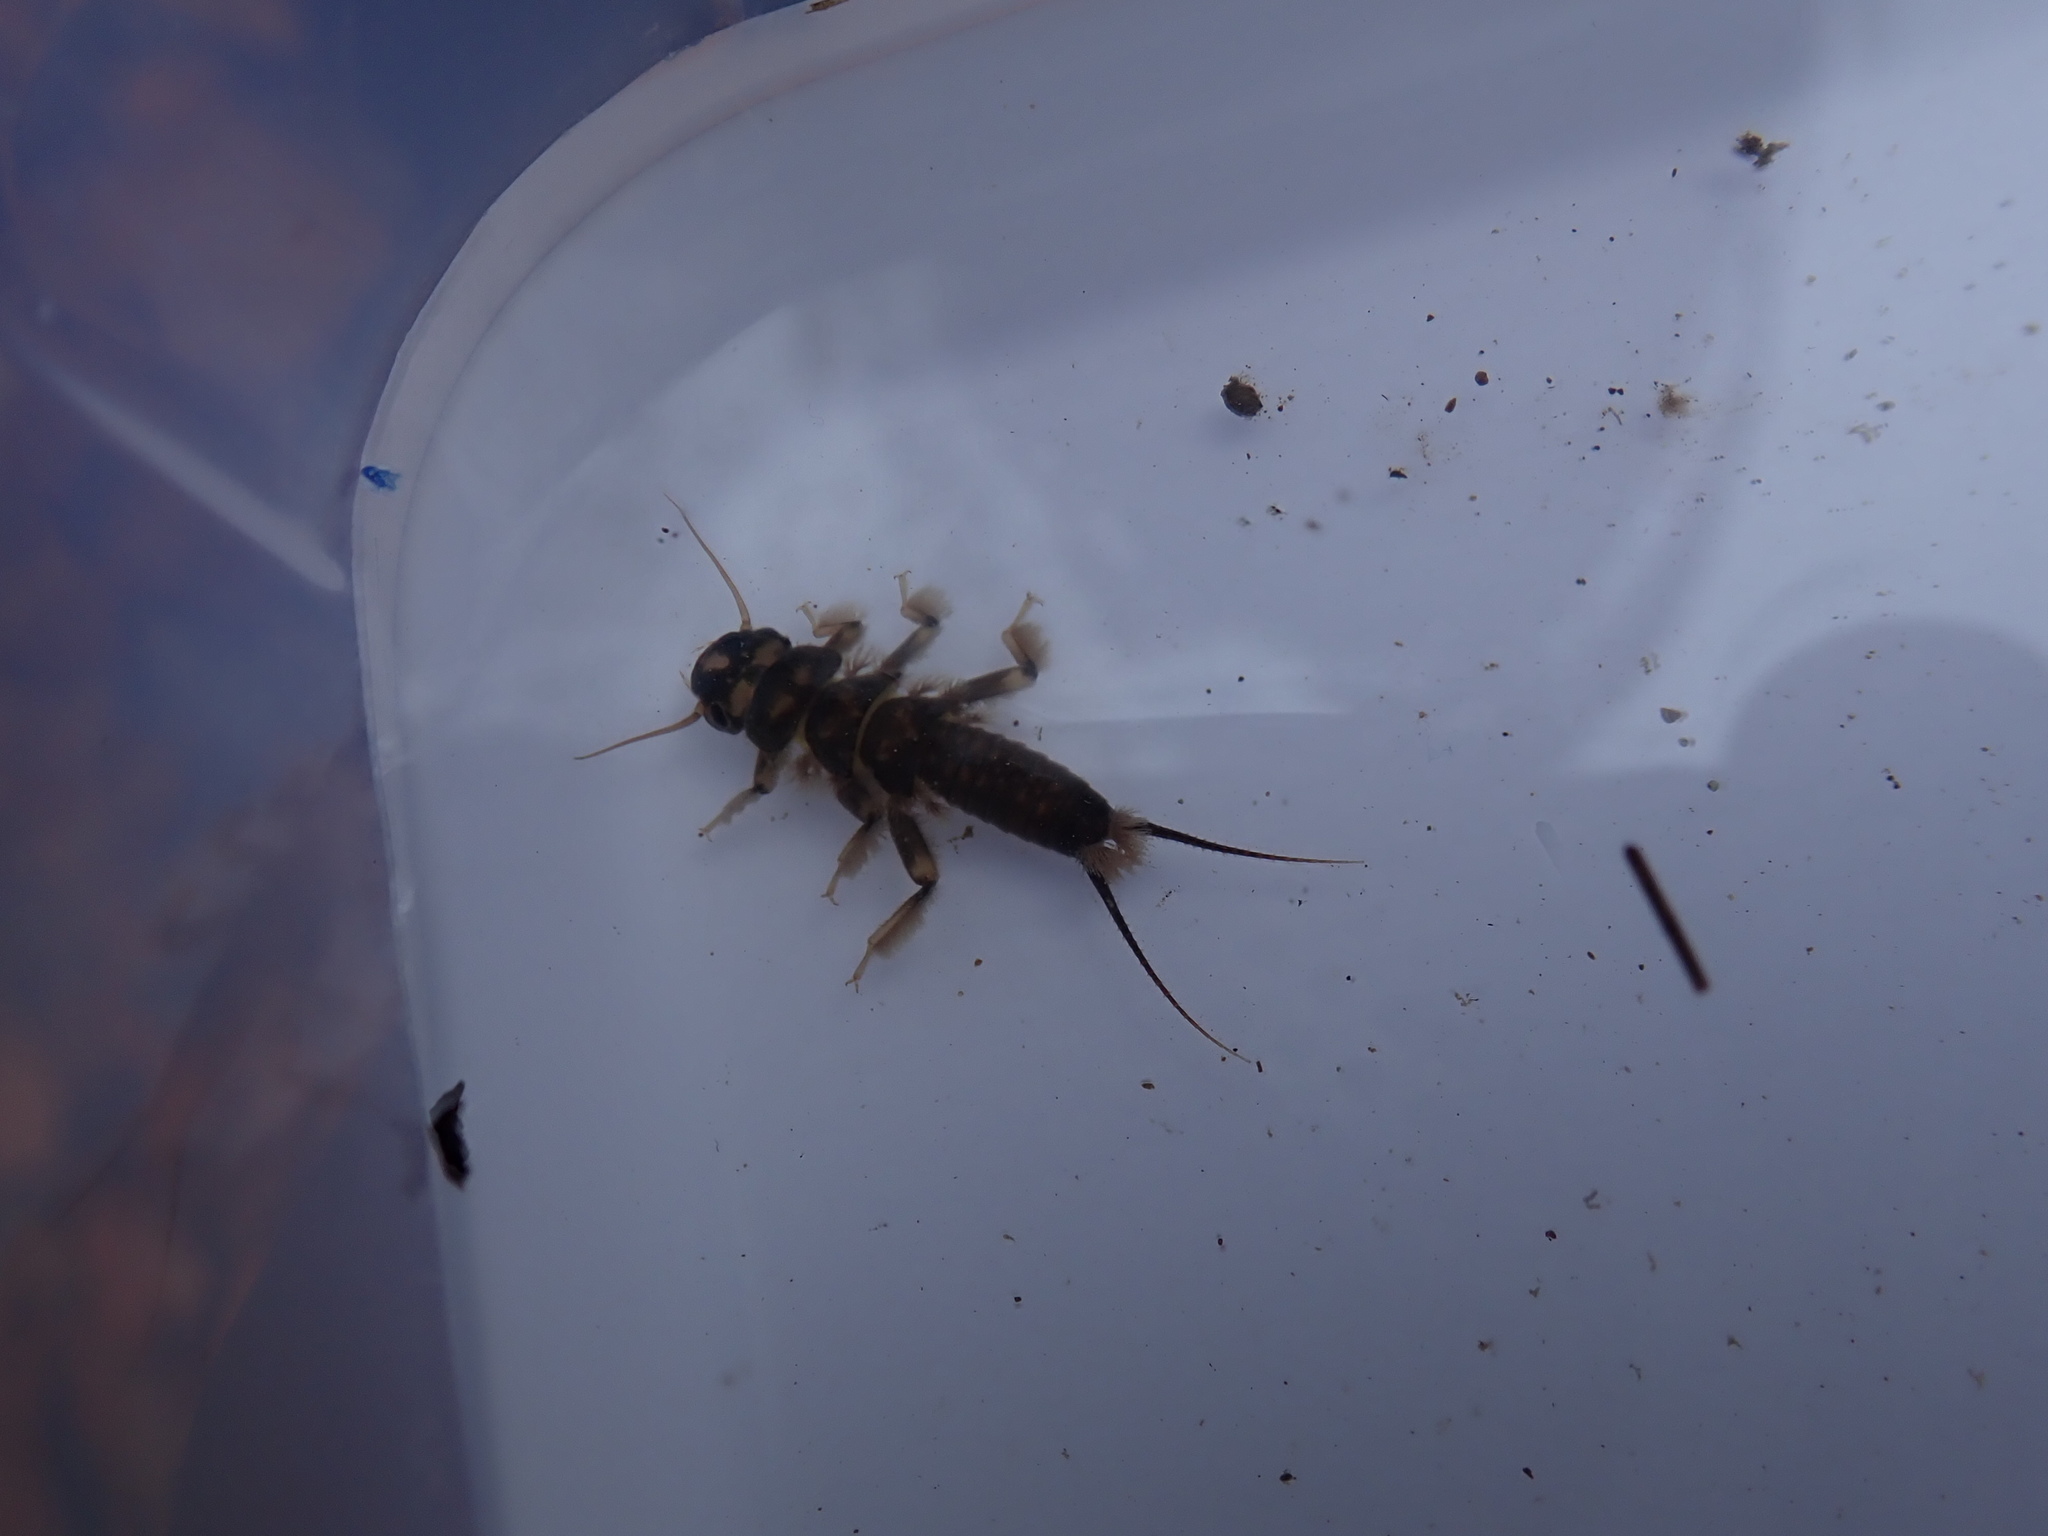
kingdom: Animalia
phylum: Arthropoda
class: Insecta
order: Plecoptera
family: Perlidae
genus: Hesperoperla
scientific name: Hesperoperla pacifica
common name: Golden stone
